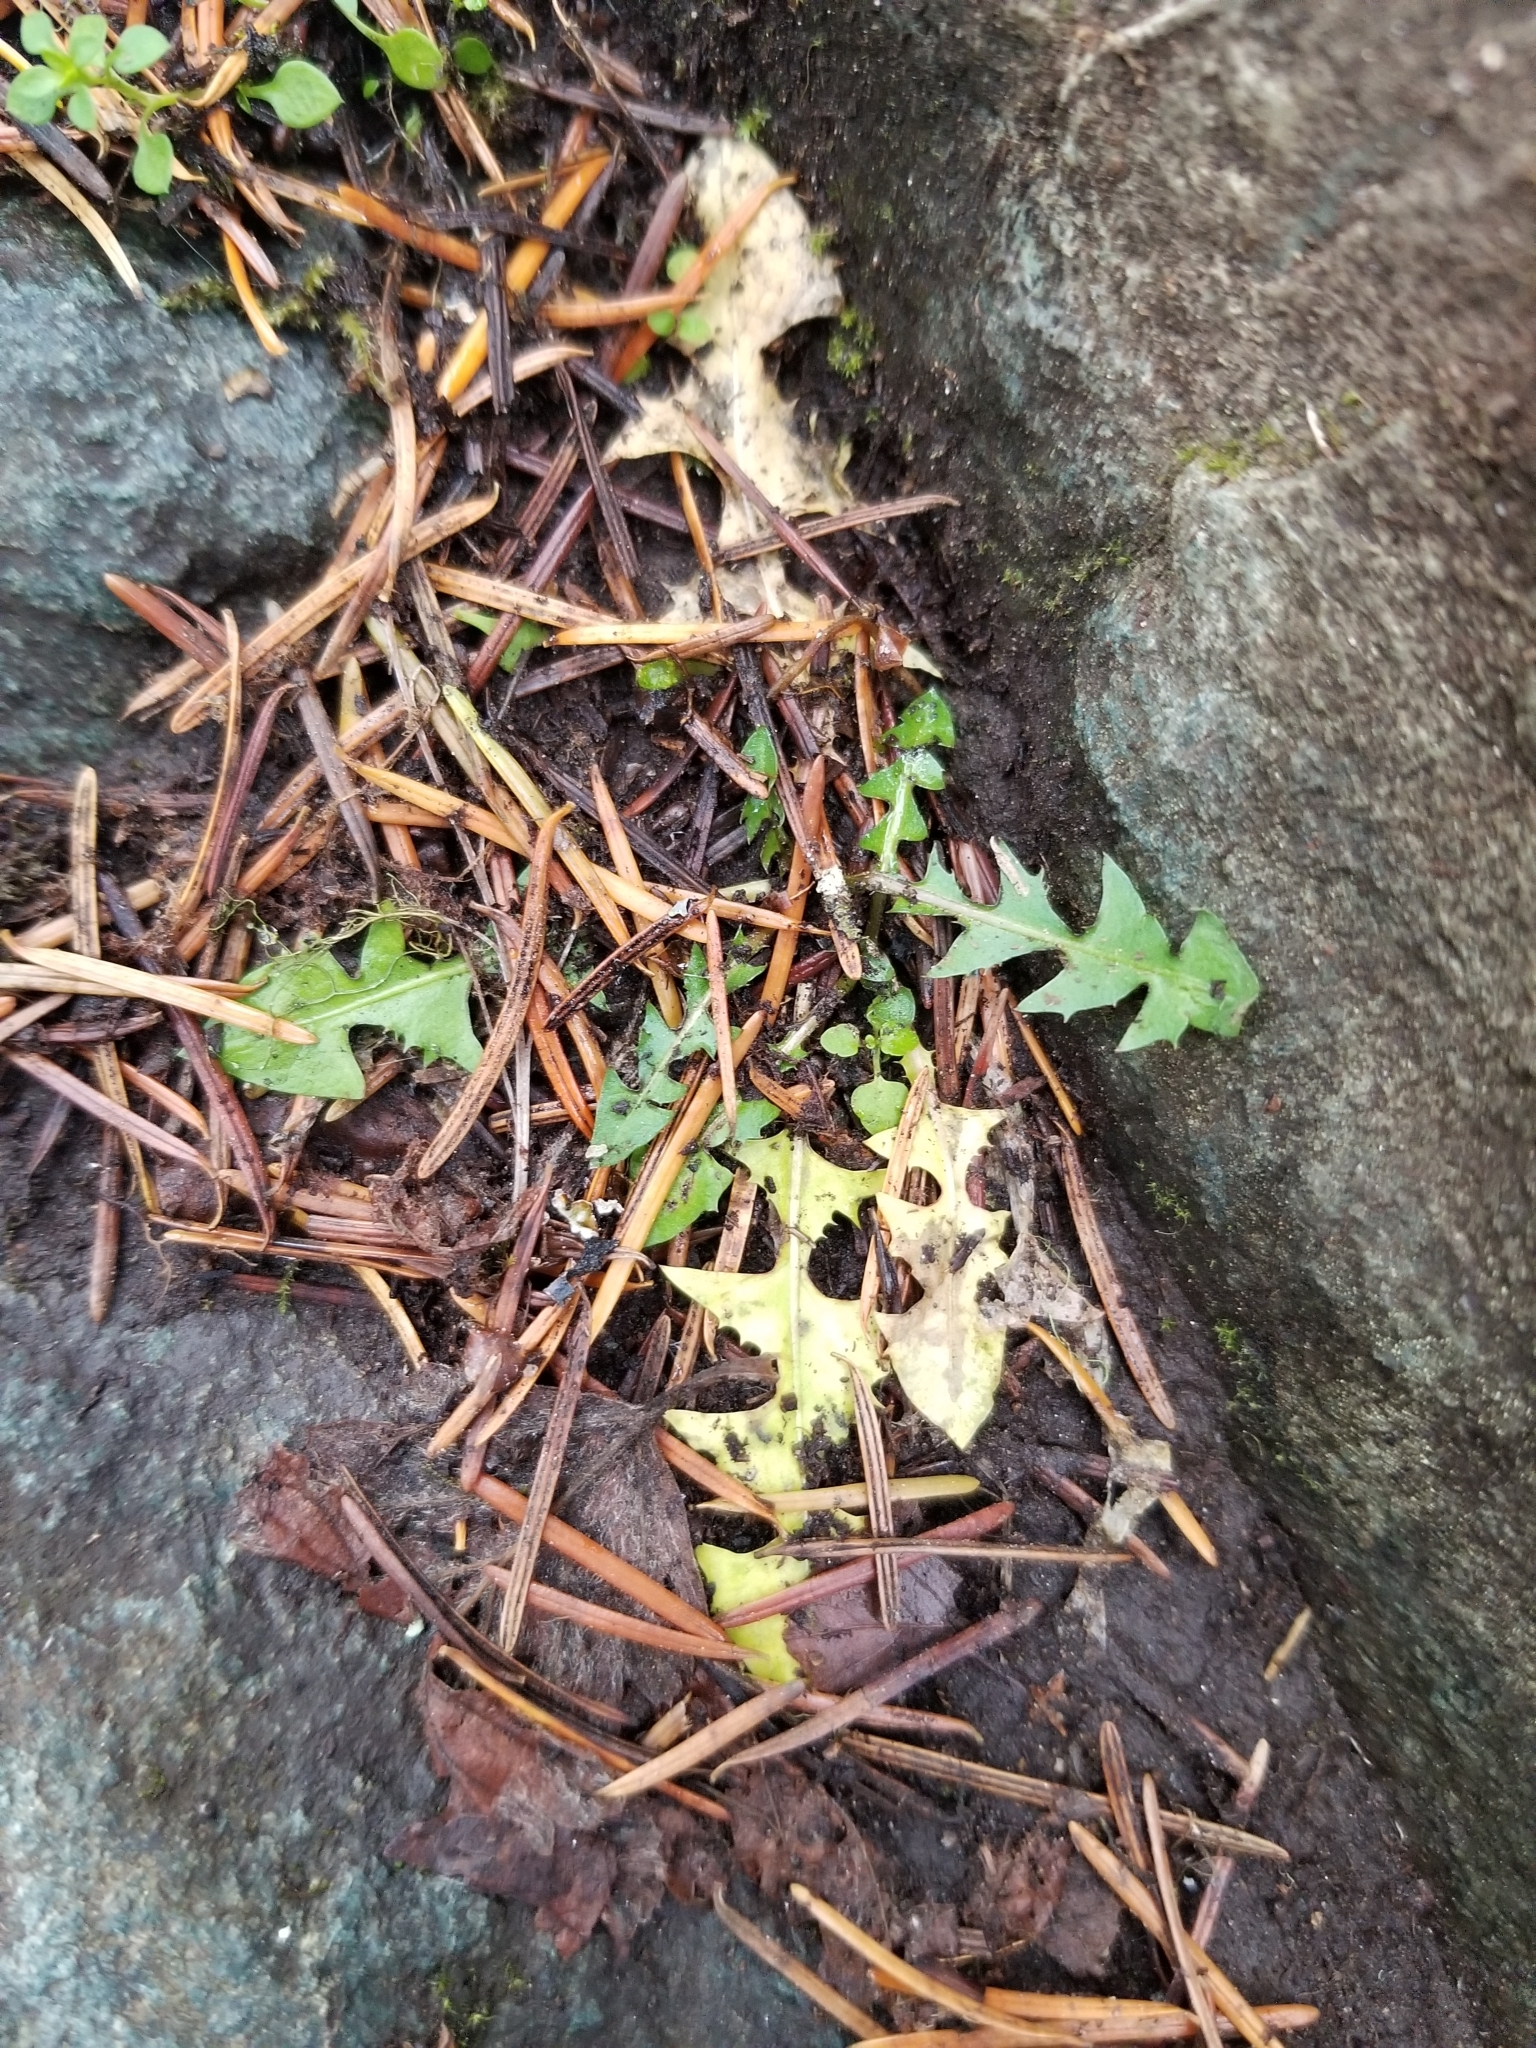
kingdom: Plantae
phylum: Tracheophyta
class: Magnoliopsida
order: Asterales
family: Asteraceae
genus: Taraxacum
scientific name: Taraxacum officinale
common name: Common dandelion
